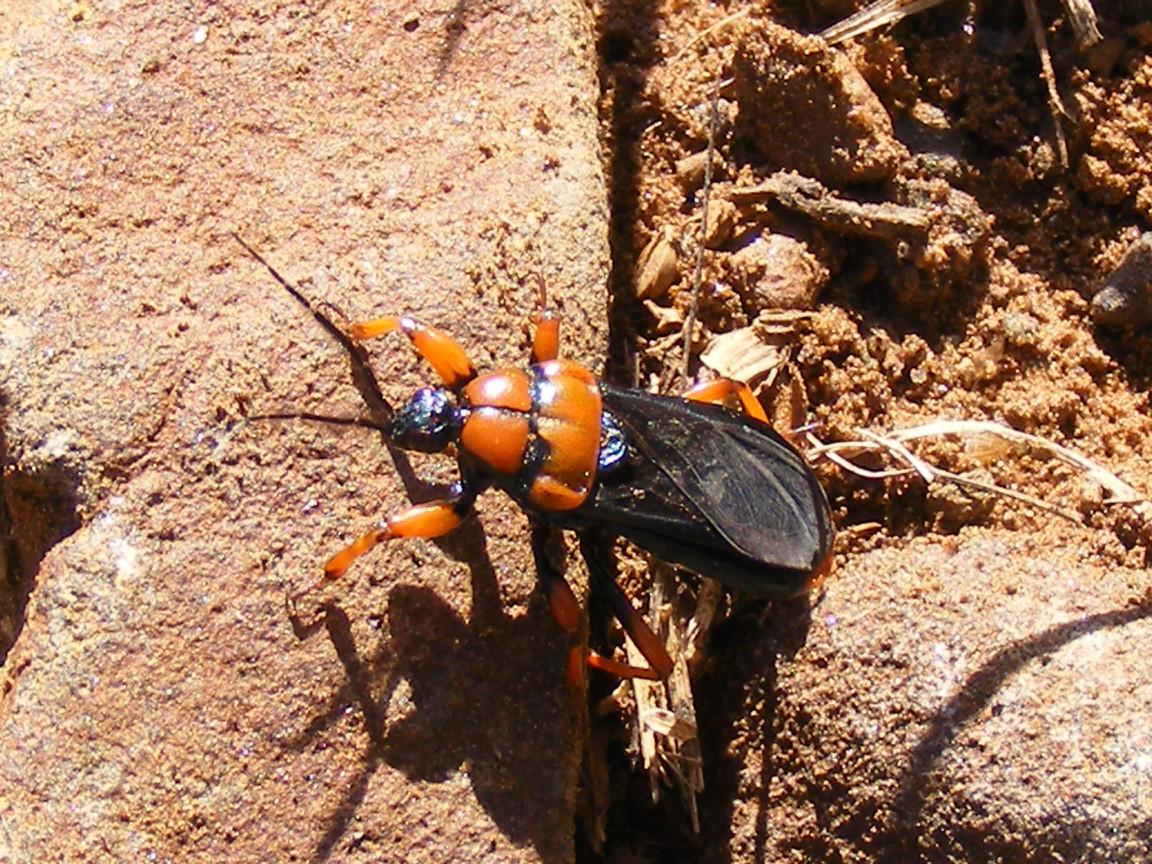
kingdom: Animalia
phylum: Arthropoda
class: Insecta
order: Hemiptera
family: Reduviidae
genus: Glymmatophora
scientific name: Glymmatophora patricia
